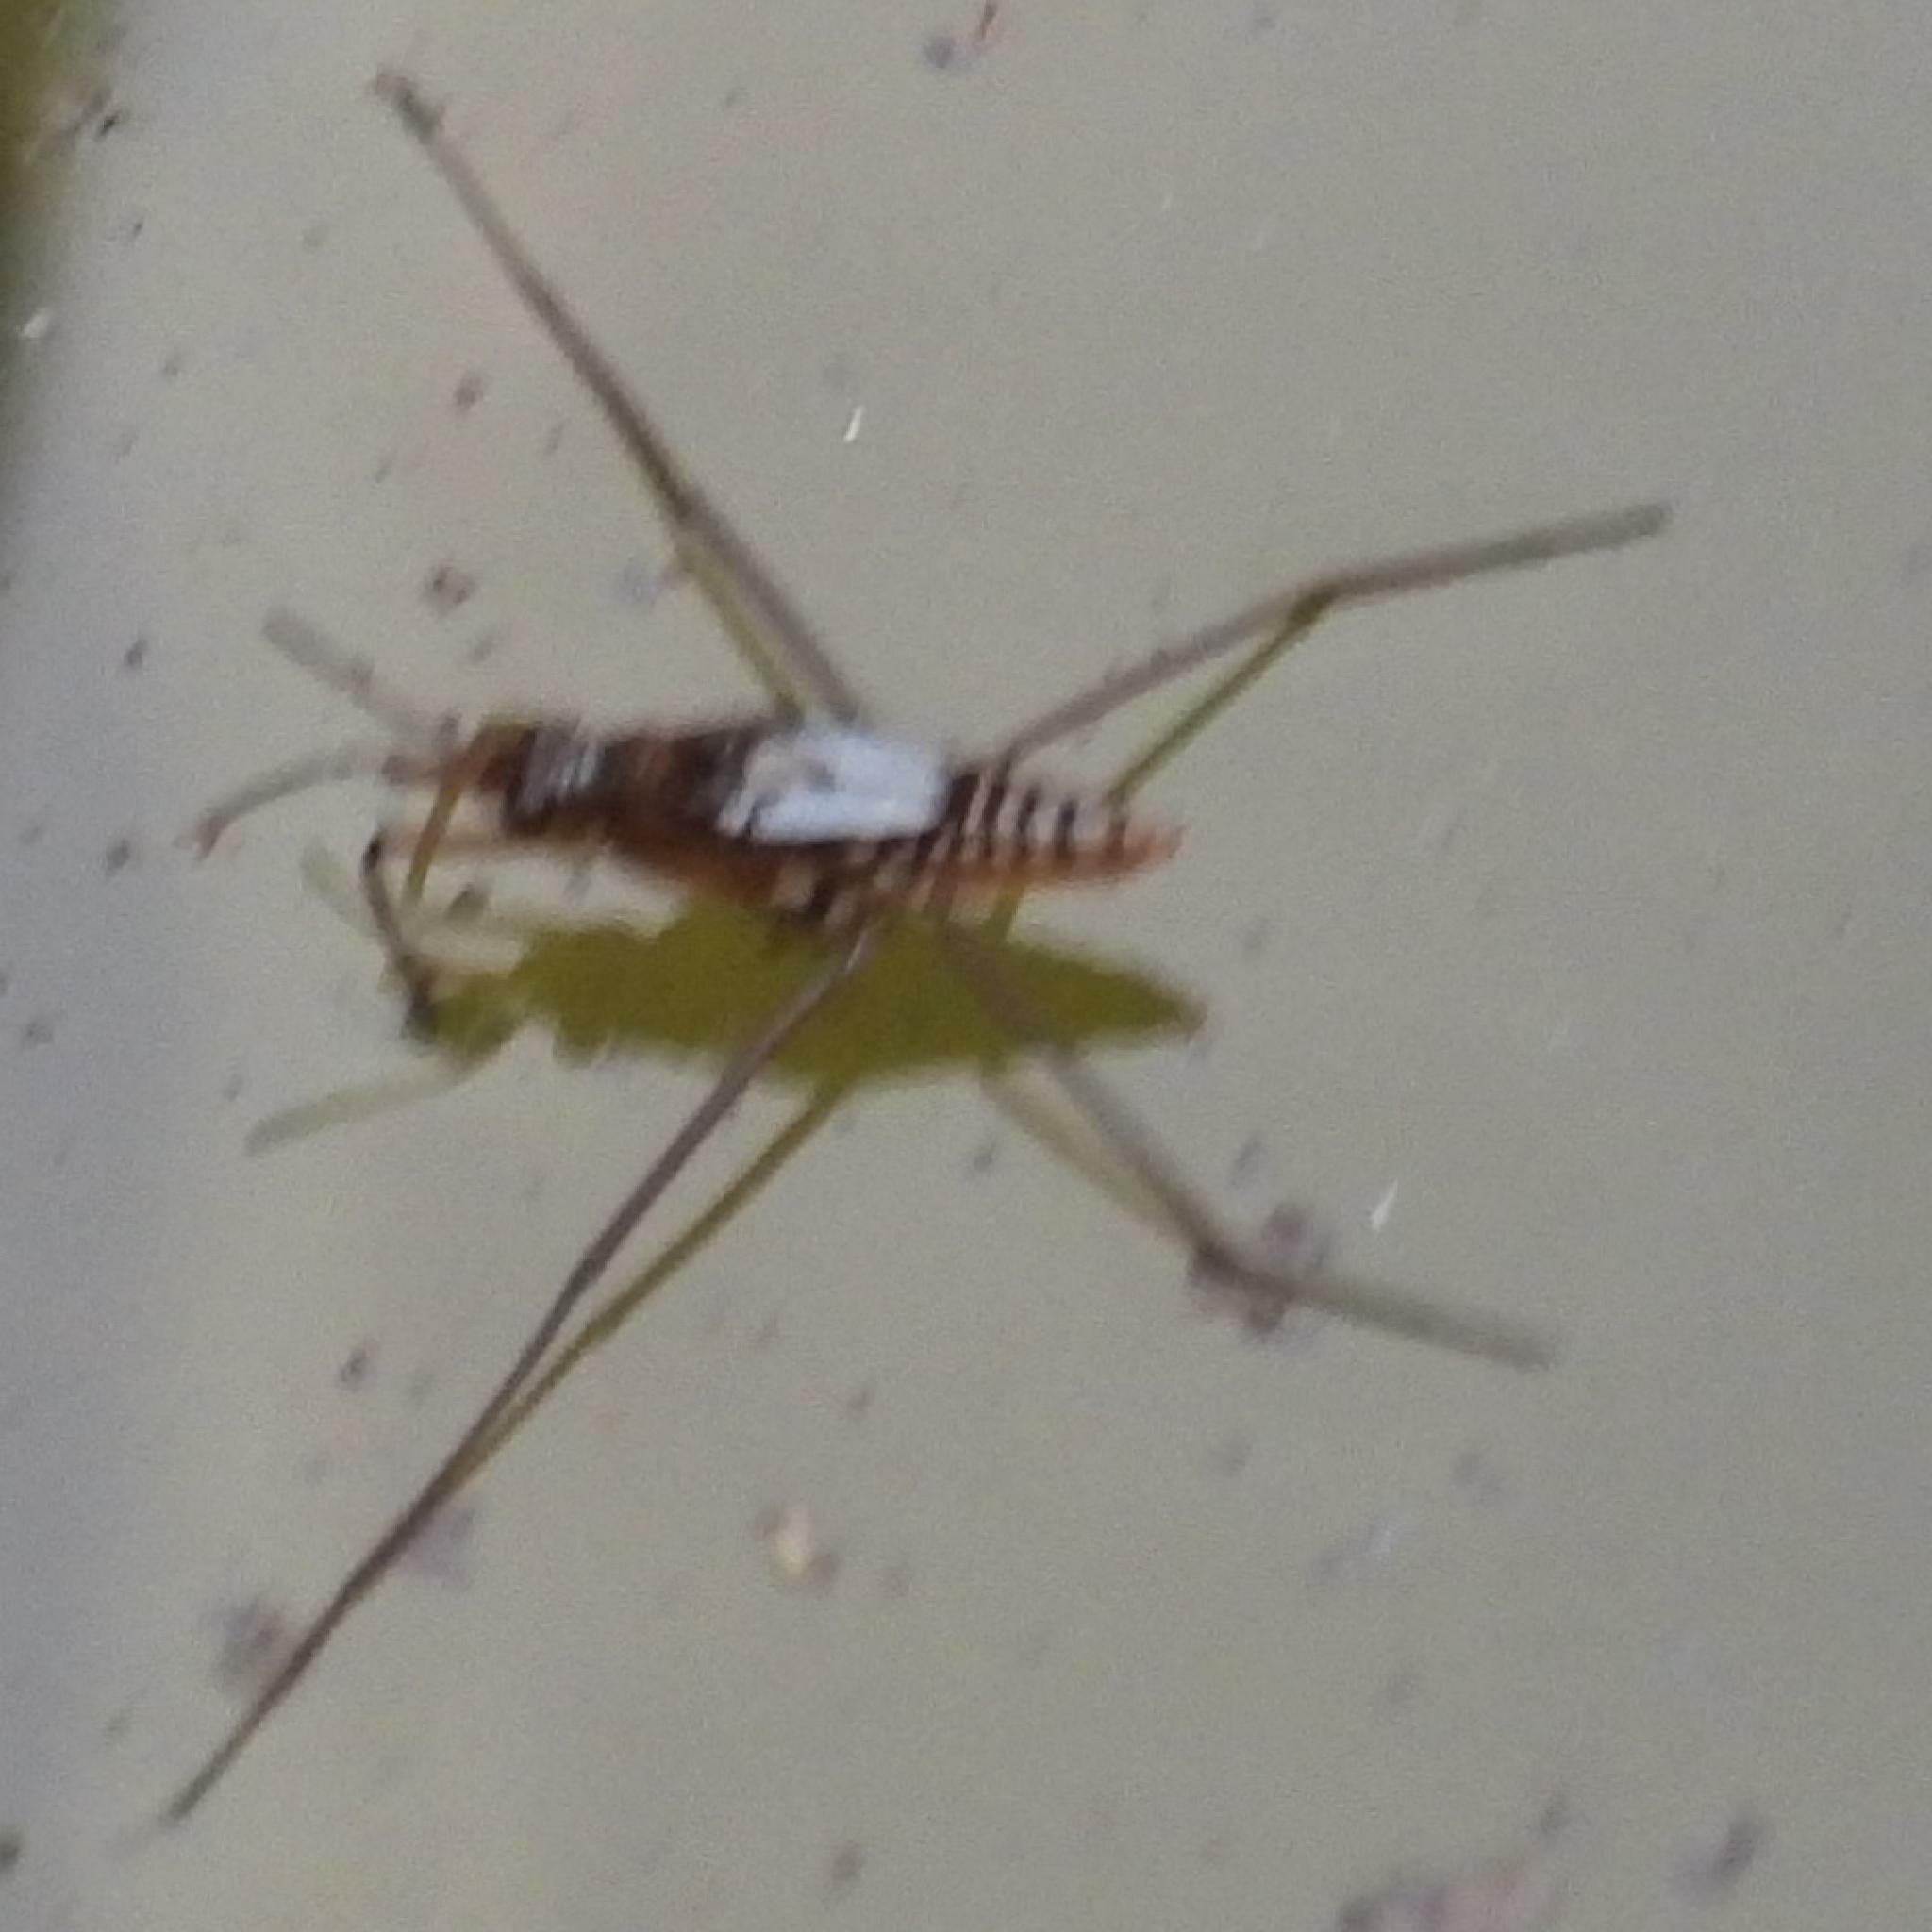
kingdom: Animalia
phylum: Arthropoda
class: Insecta
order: Hemiptera
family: Gerridae
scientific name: Gerridae
